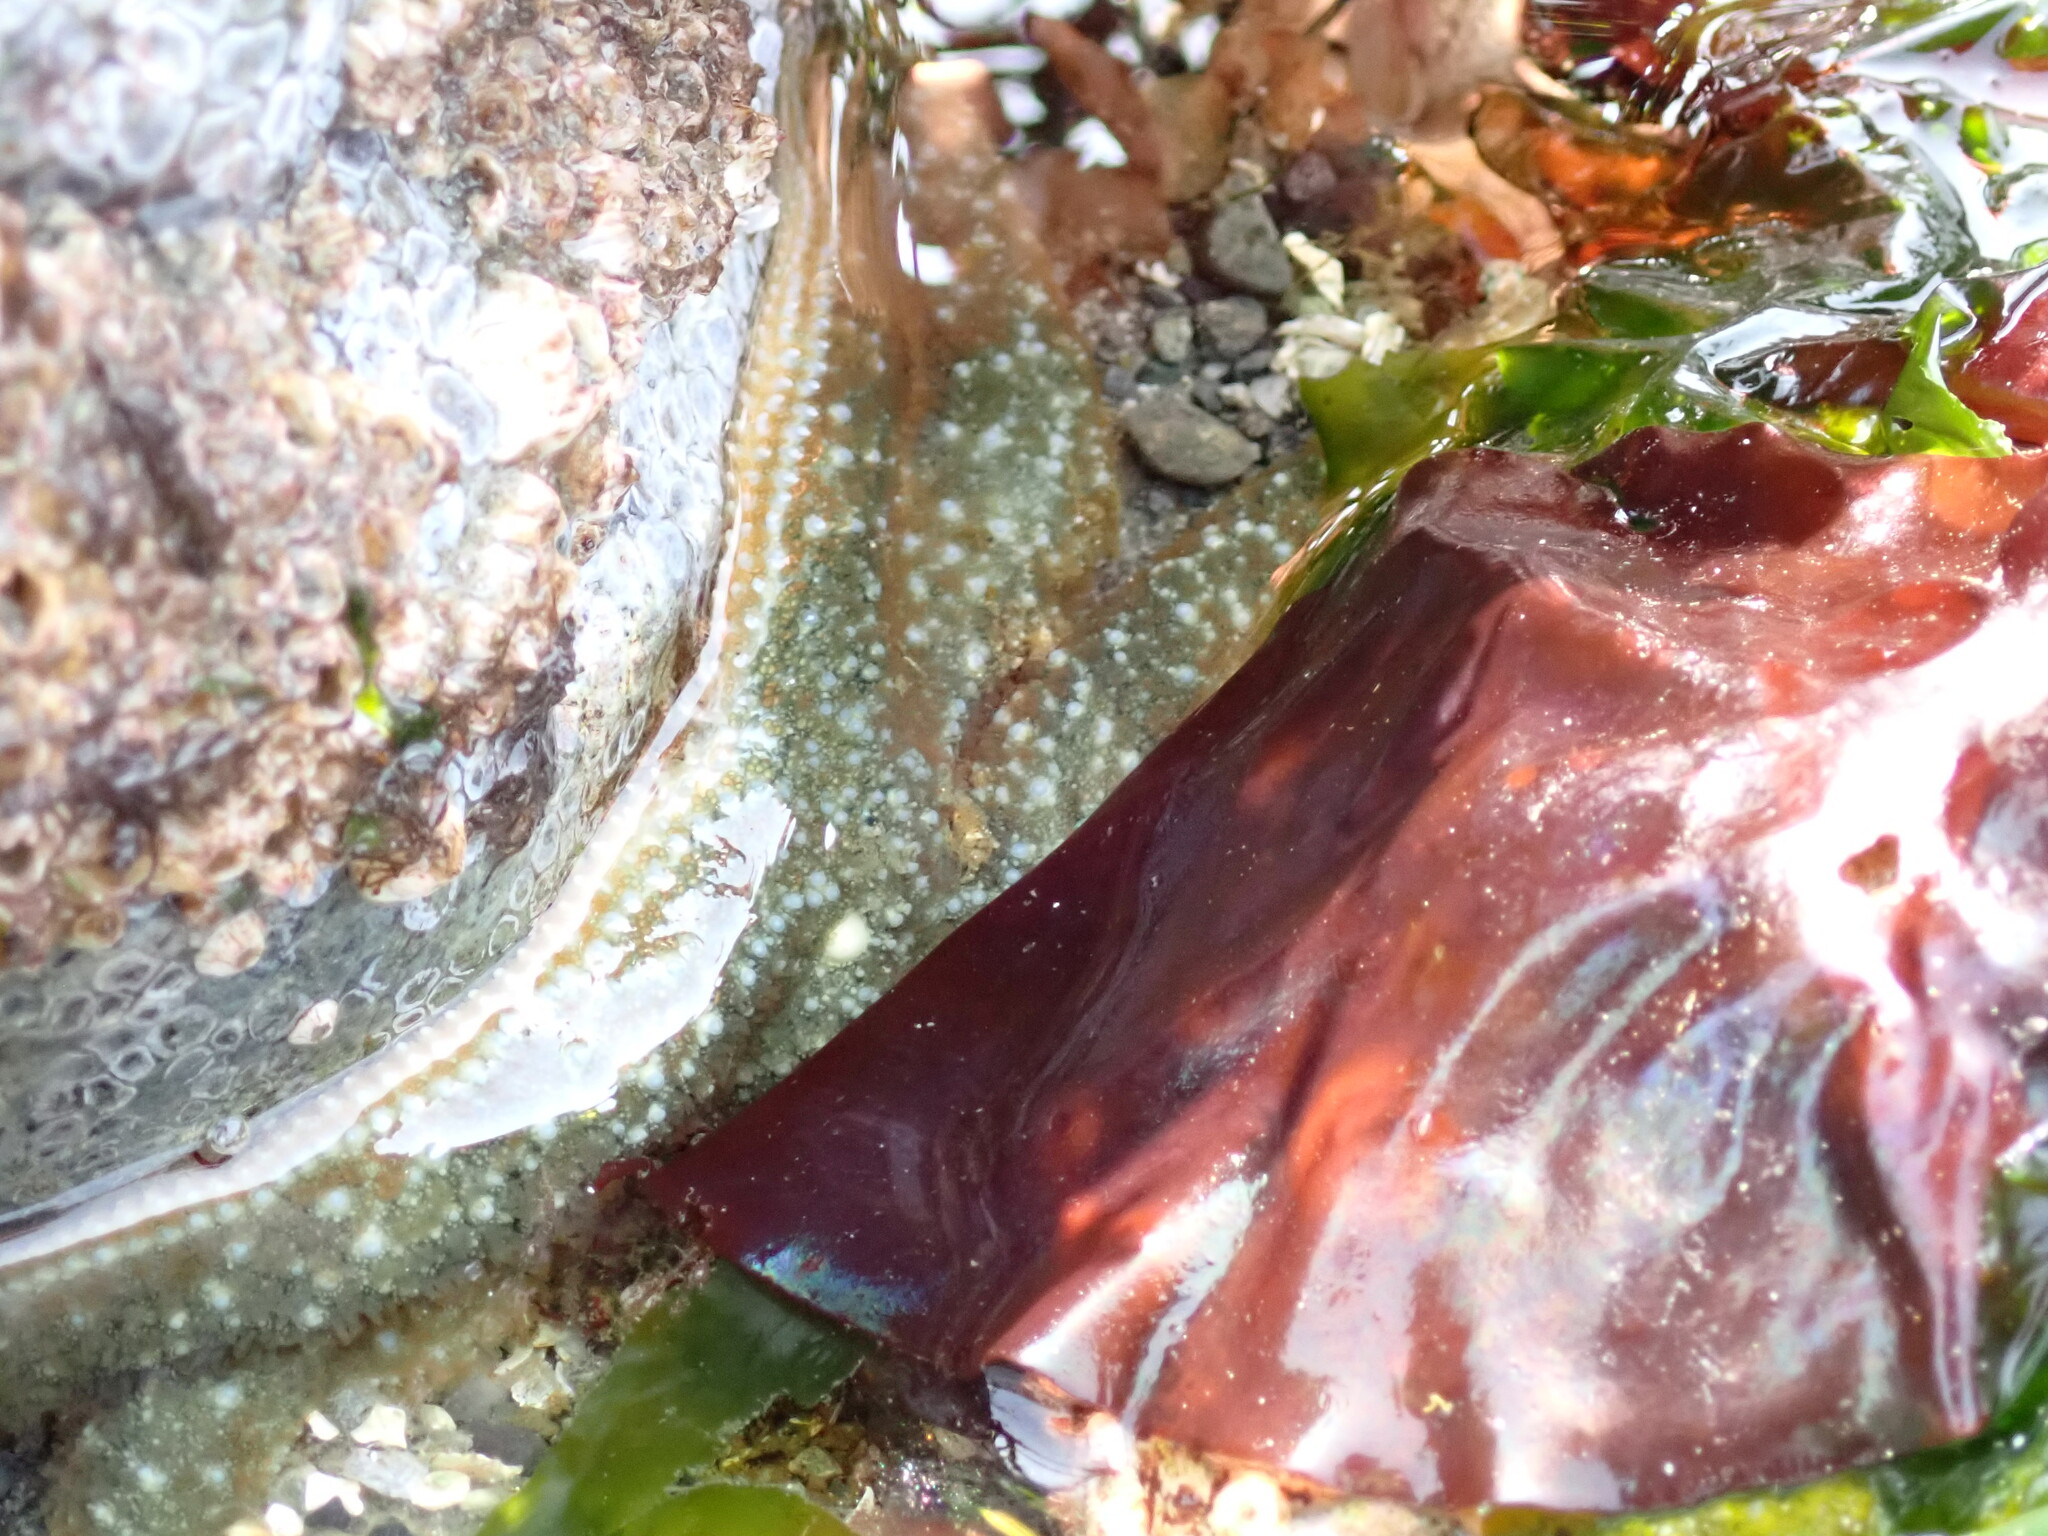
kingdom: Animalia
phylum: Echinodermata
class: Asteroidea
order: Forcipulatida
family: Asteriidae
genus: Evasterias
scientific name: Evasterias troschelii
